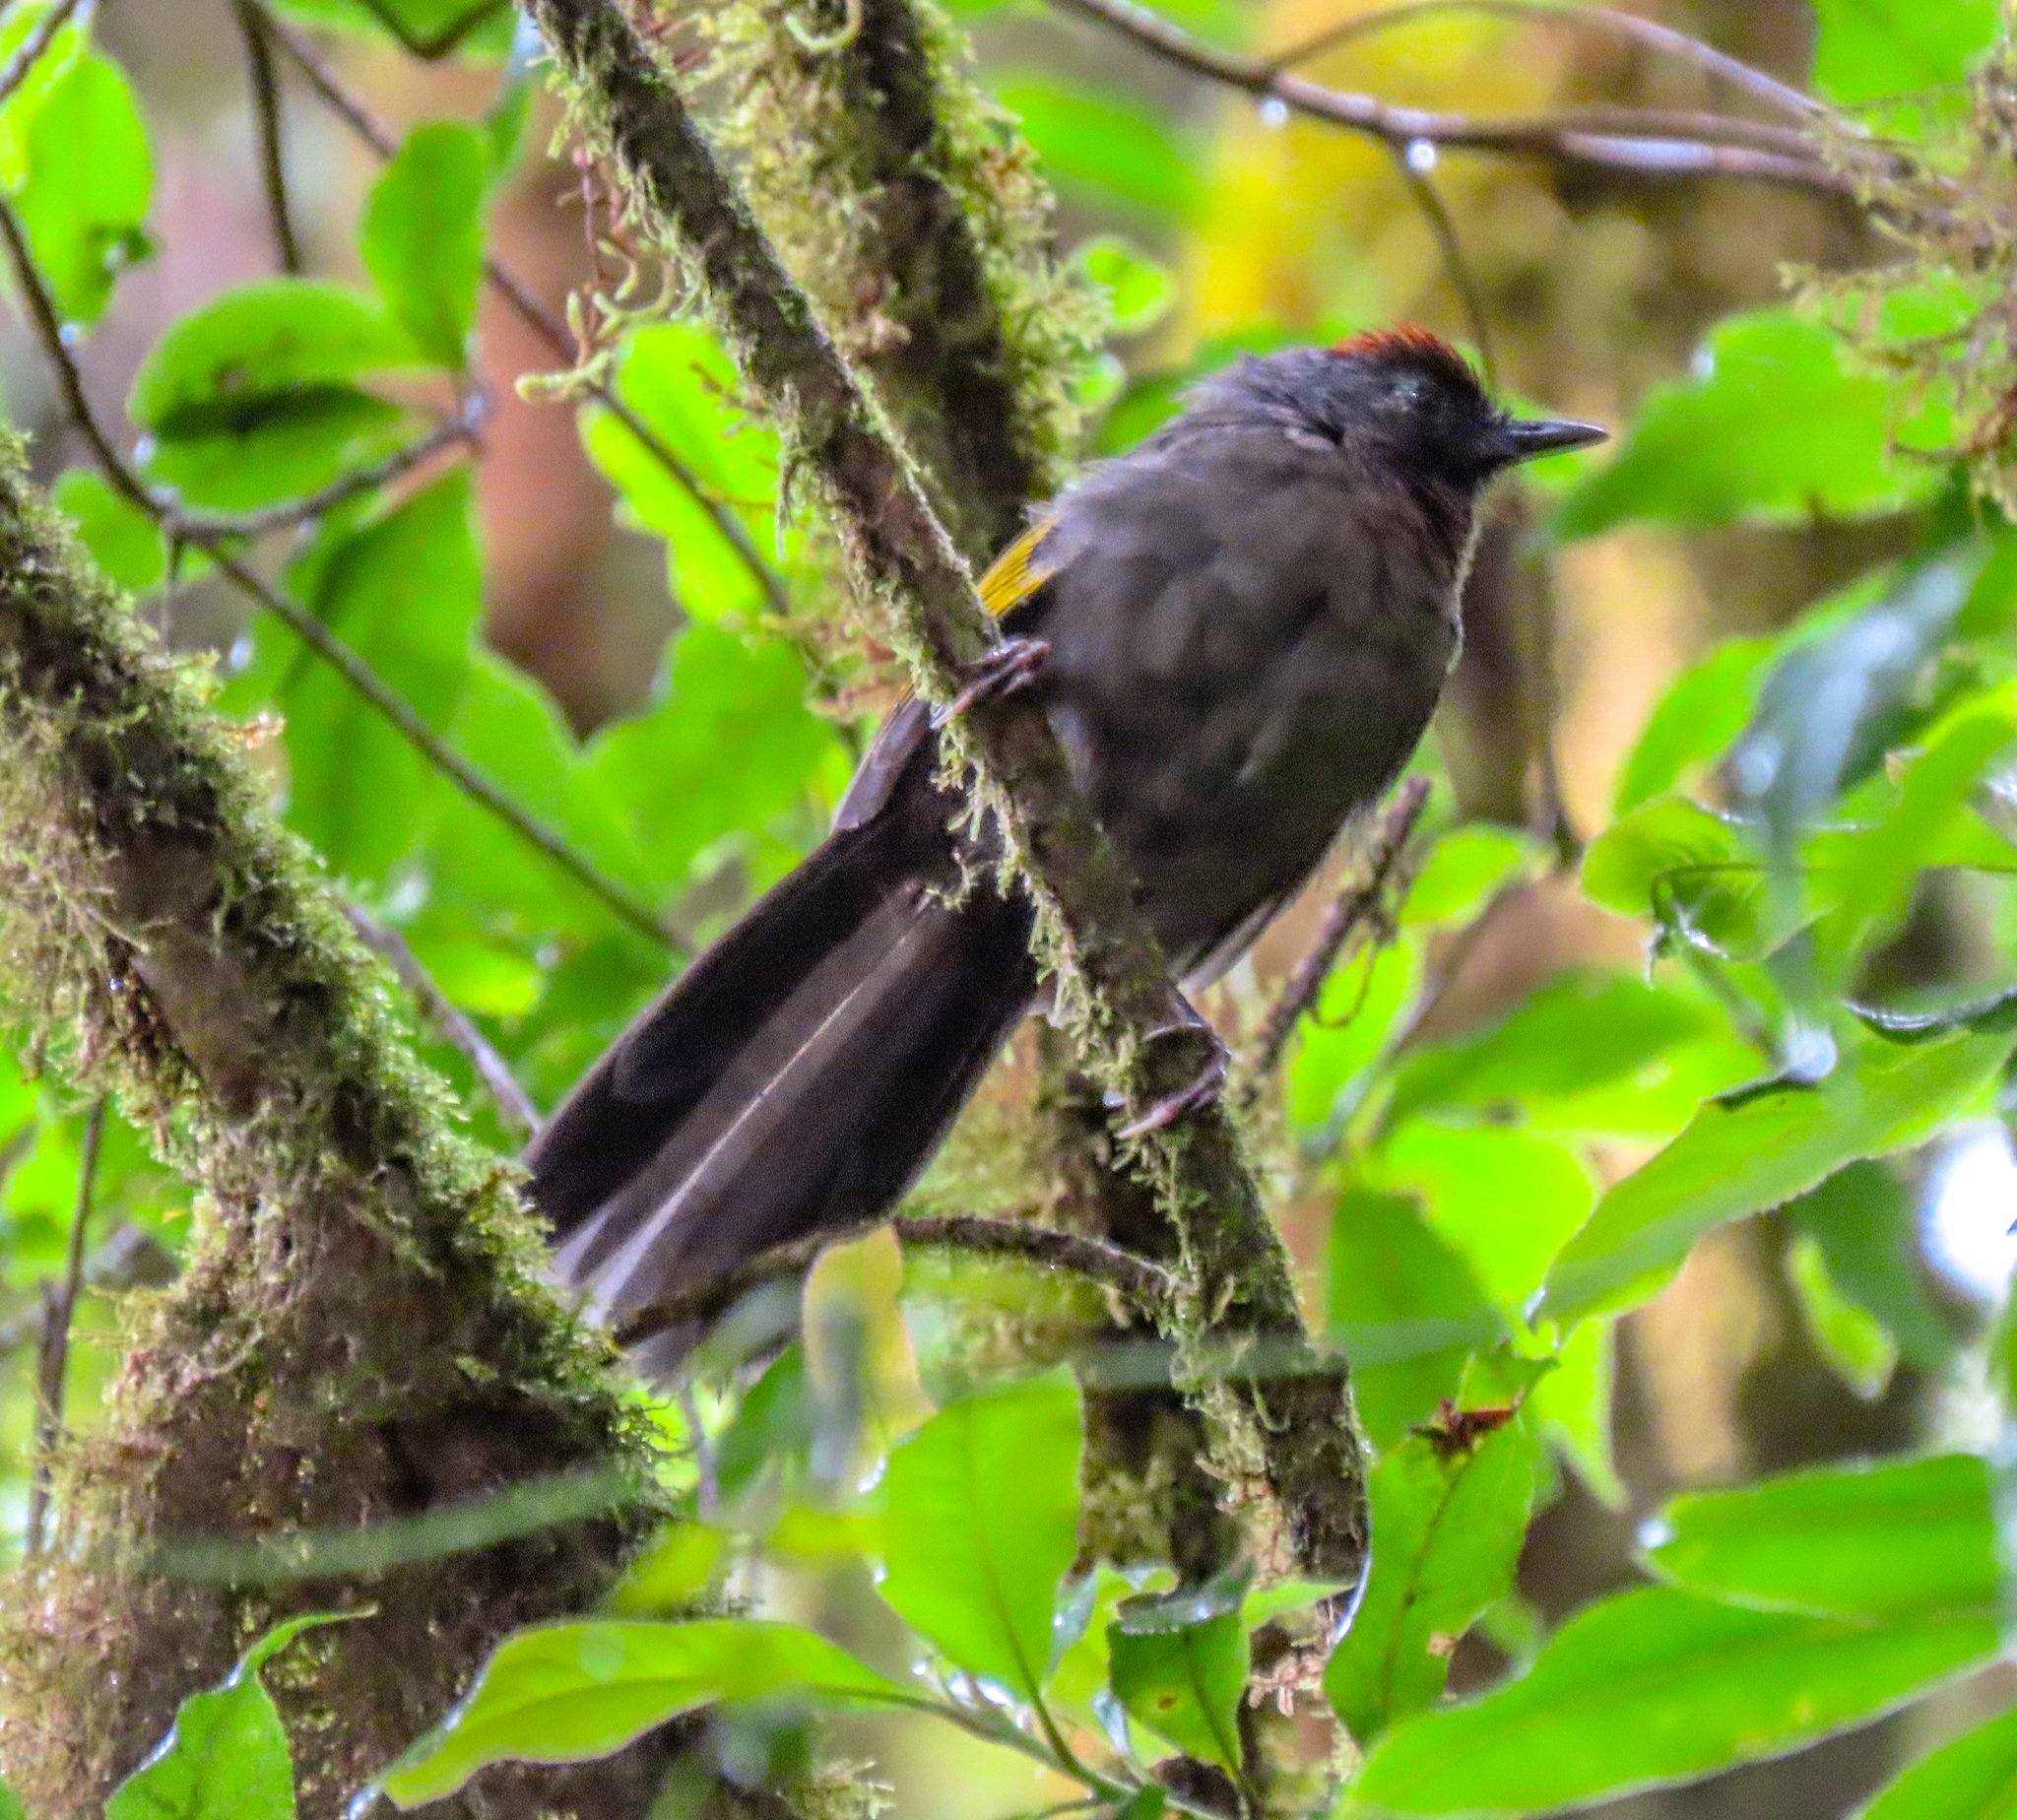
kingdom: Animalia
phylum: Chordata
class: Aves
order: Passeriformes
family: Leiothrichidae
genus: Trochalopteron
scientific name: Trochalopteron melanostigma
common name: Silver-eared laughingthrush
